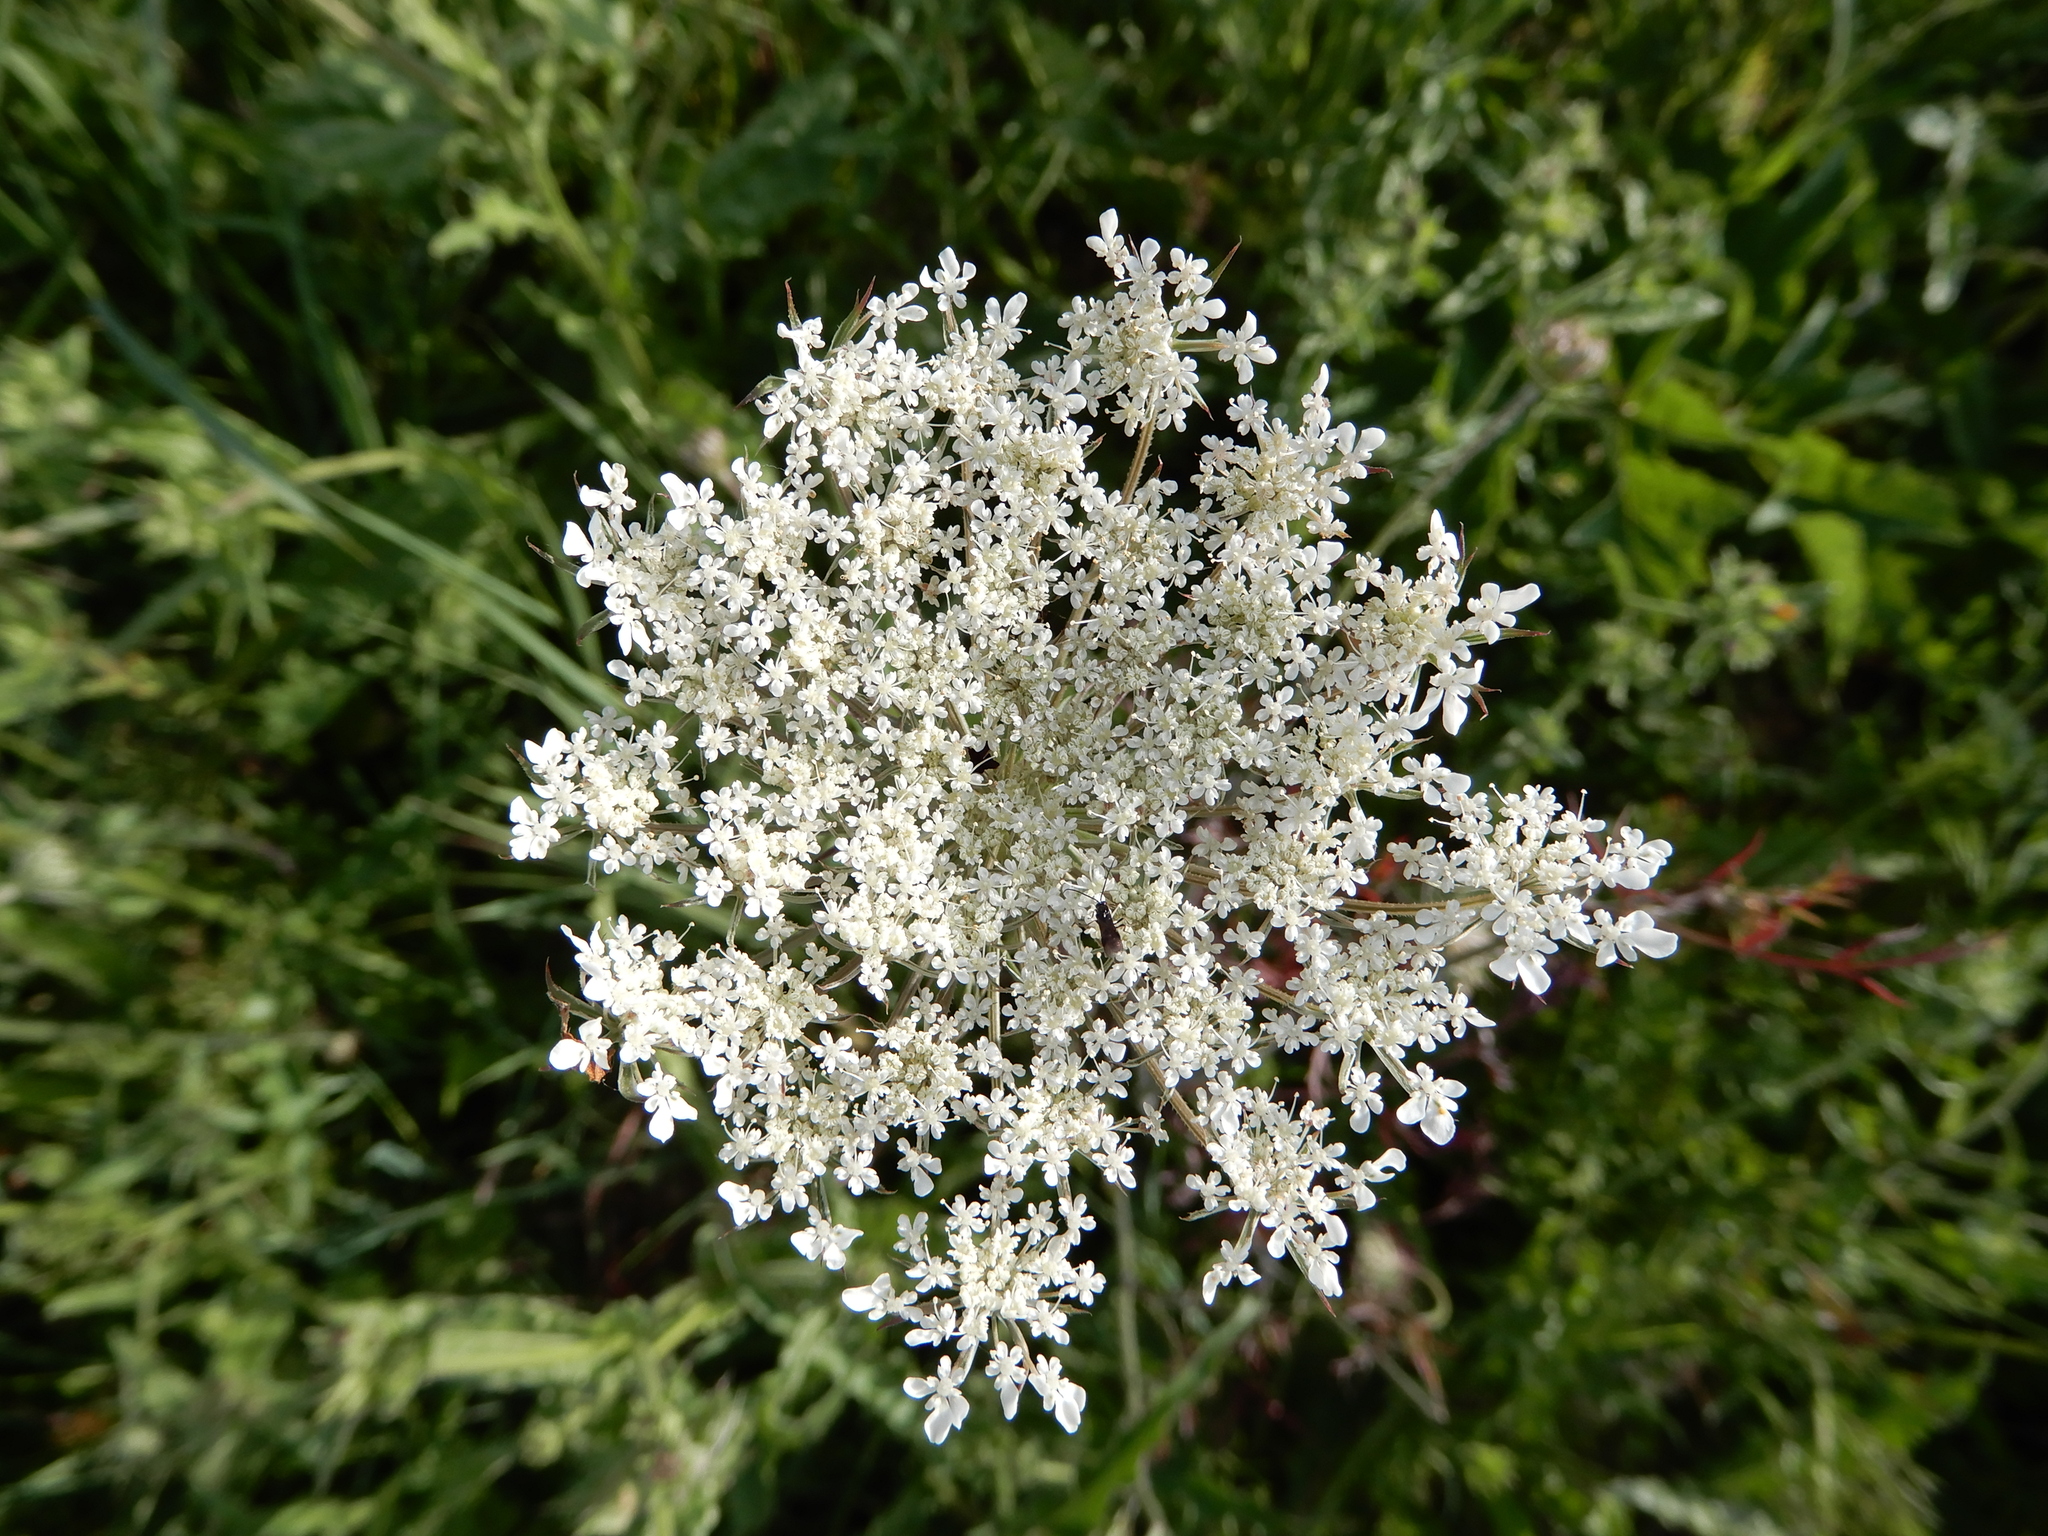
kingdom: Plantae
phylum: Tracheophyta
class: Magnoliopsida
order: Apiales
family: Apiaceae
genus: Daucus
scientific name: Daucus carota
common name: Wild carrot
